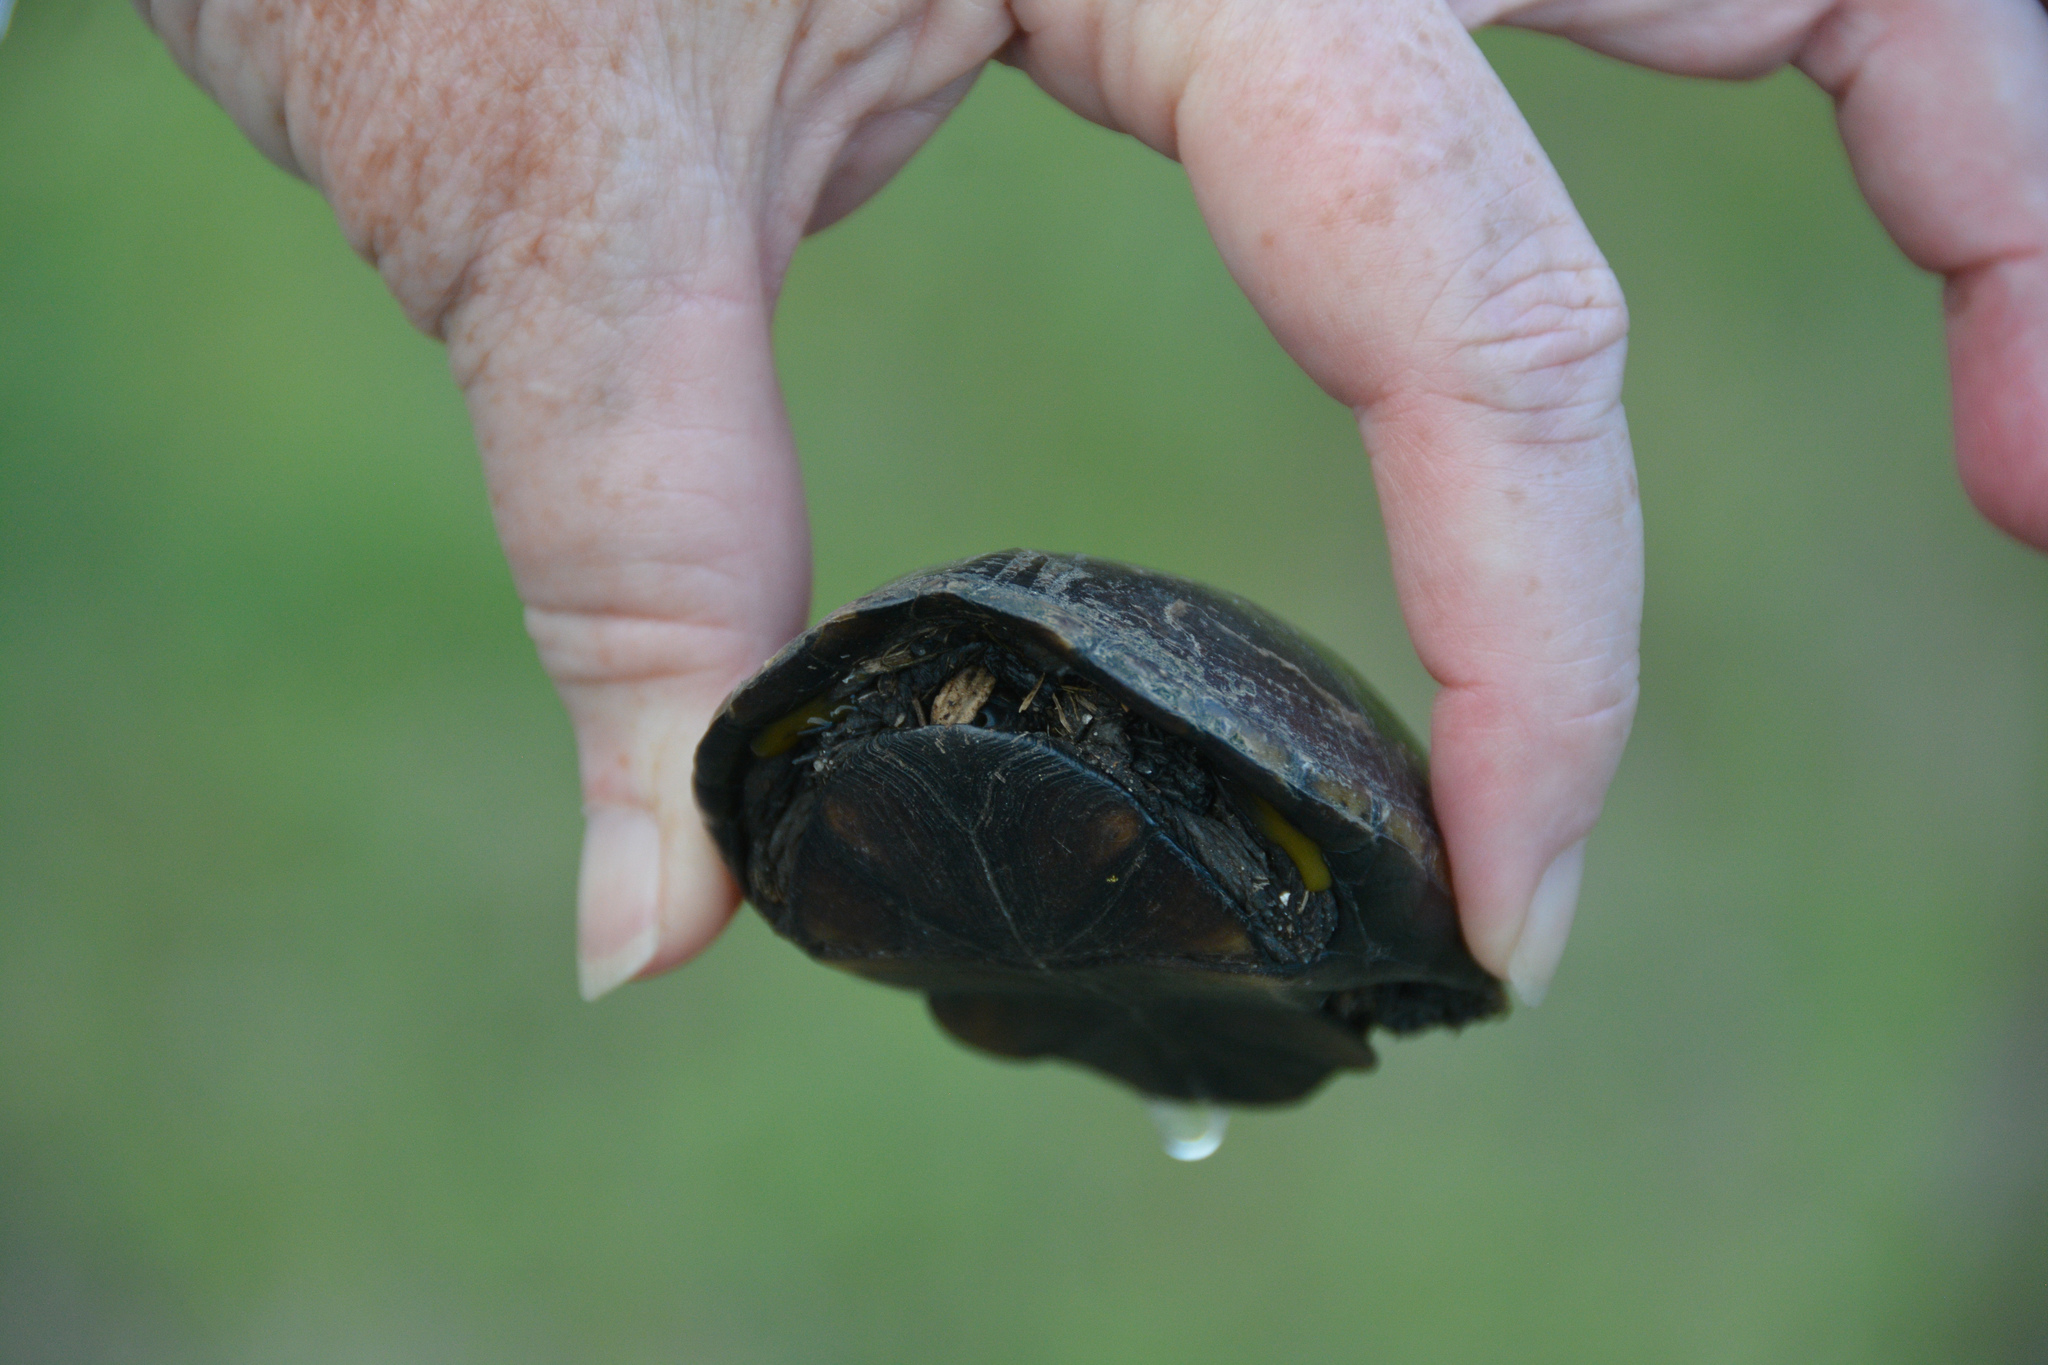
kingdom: Animalia
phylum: Chordata
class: Testudines
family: Kinosternidae
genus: Kinosternon
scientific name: Kinosternon subrubrum
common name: Eastern mud turtle
